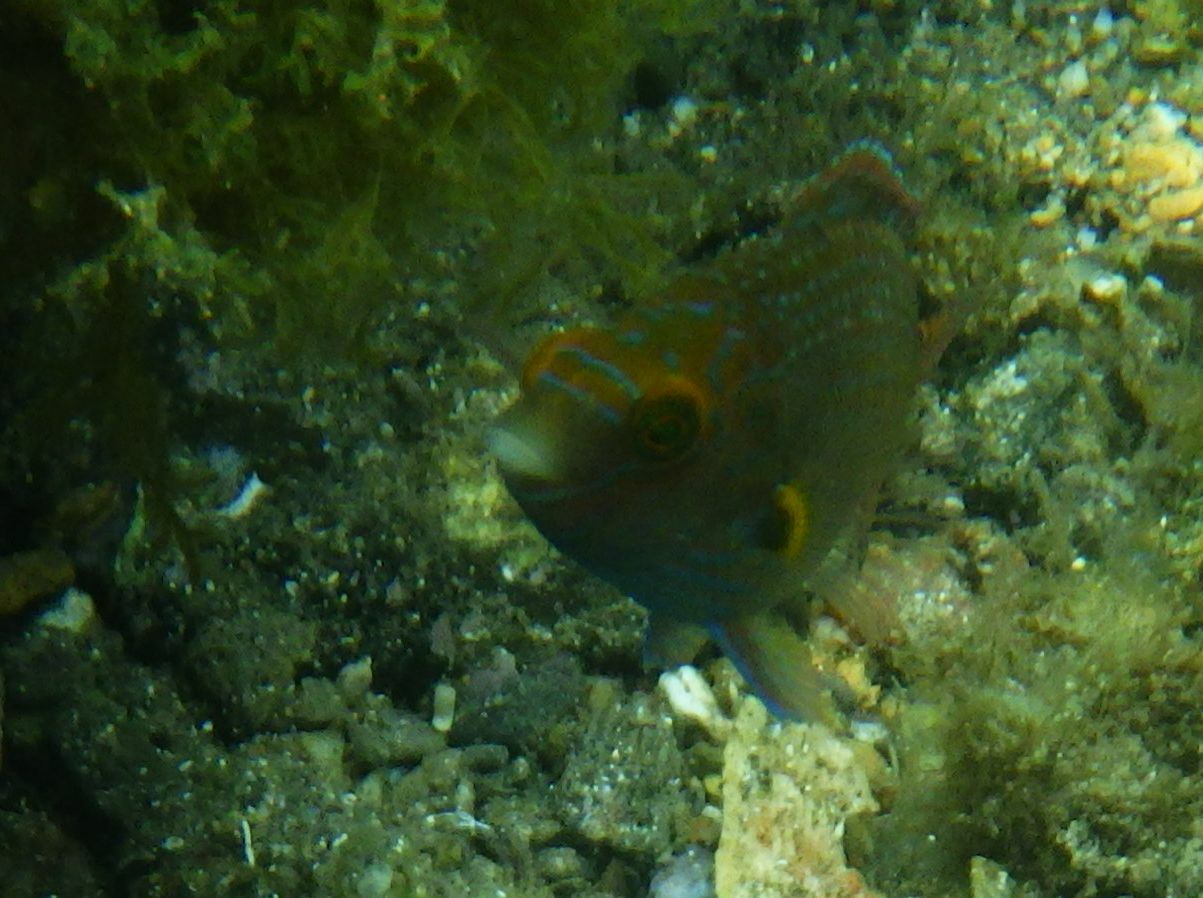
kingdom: Animalia
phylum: Chordata
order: Perciformes
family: Labridae
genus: Symphodus
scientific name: Symphodus mediterraneus
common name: Axillary wrasse
